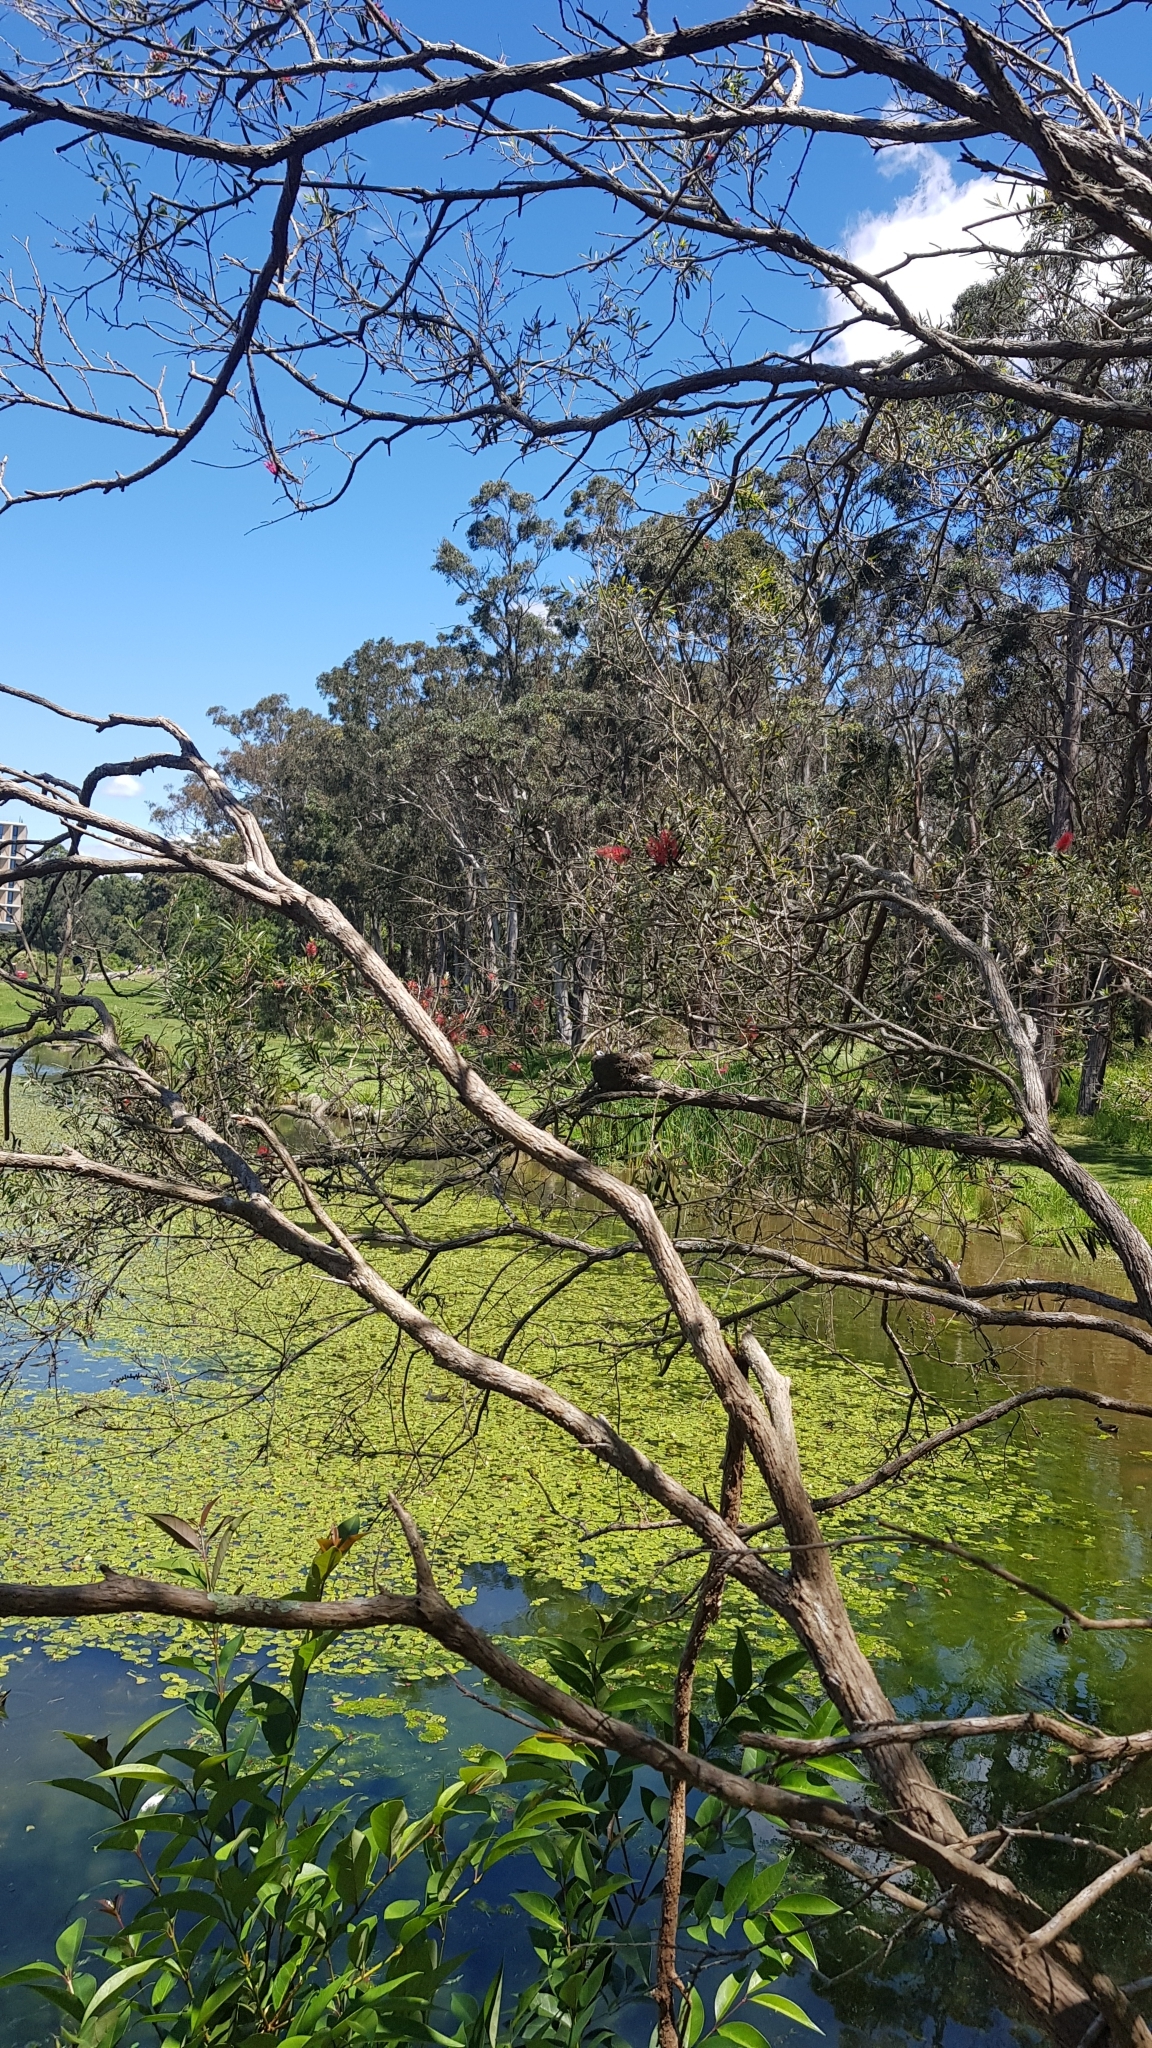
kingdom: Animalia
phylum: Chordata
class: Aves
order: Passeriformes
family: Monarchidae
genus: Grallina
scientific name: Grallina cyanoleuca
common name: Magpie-lark
